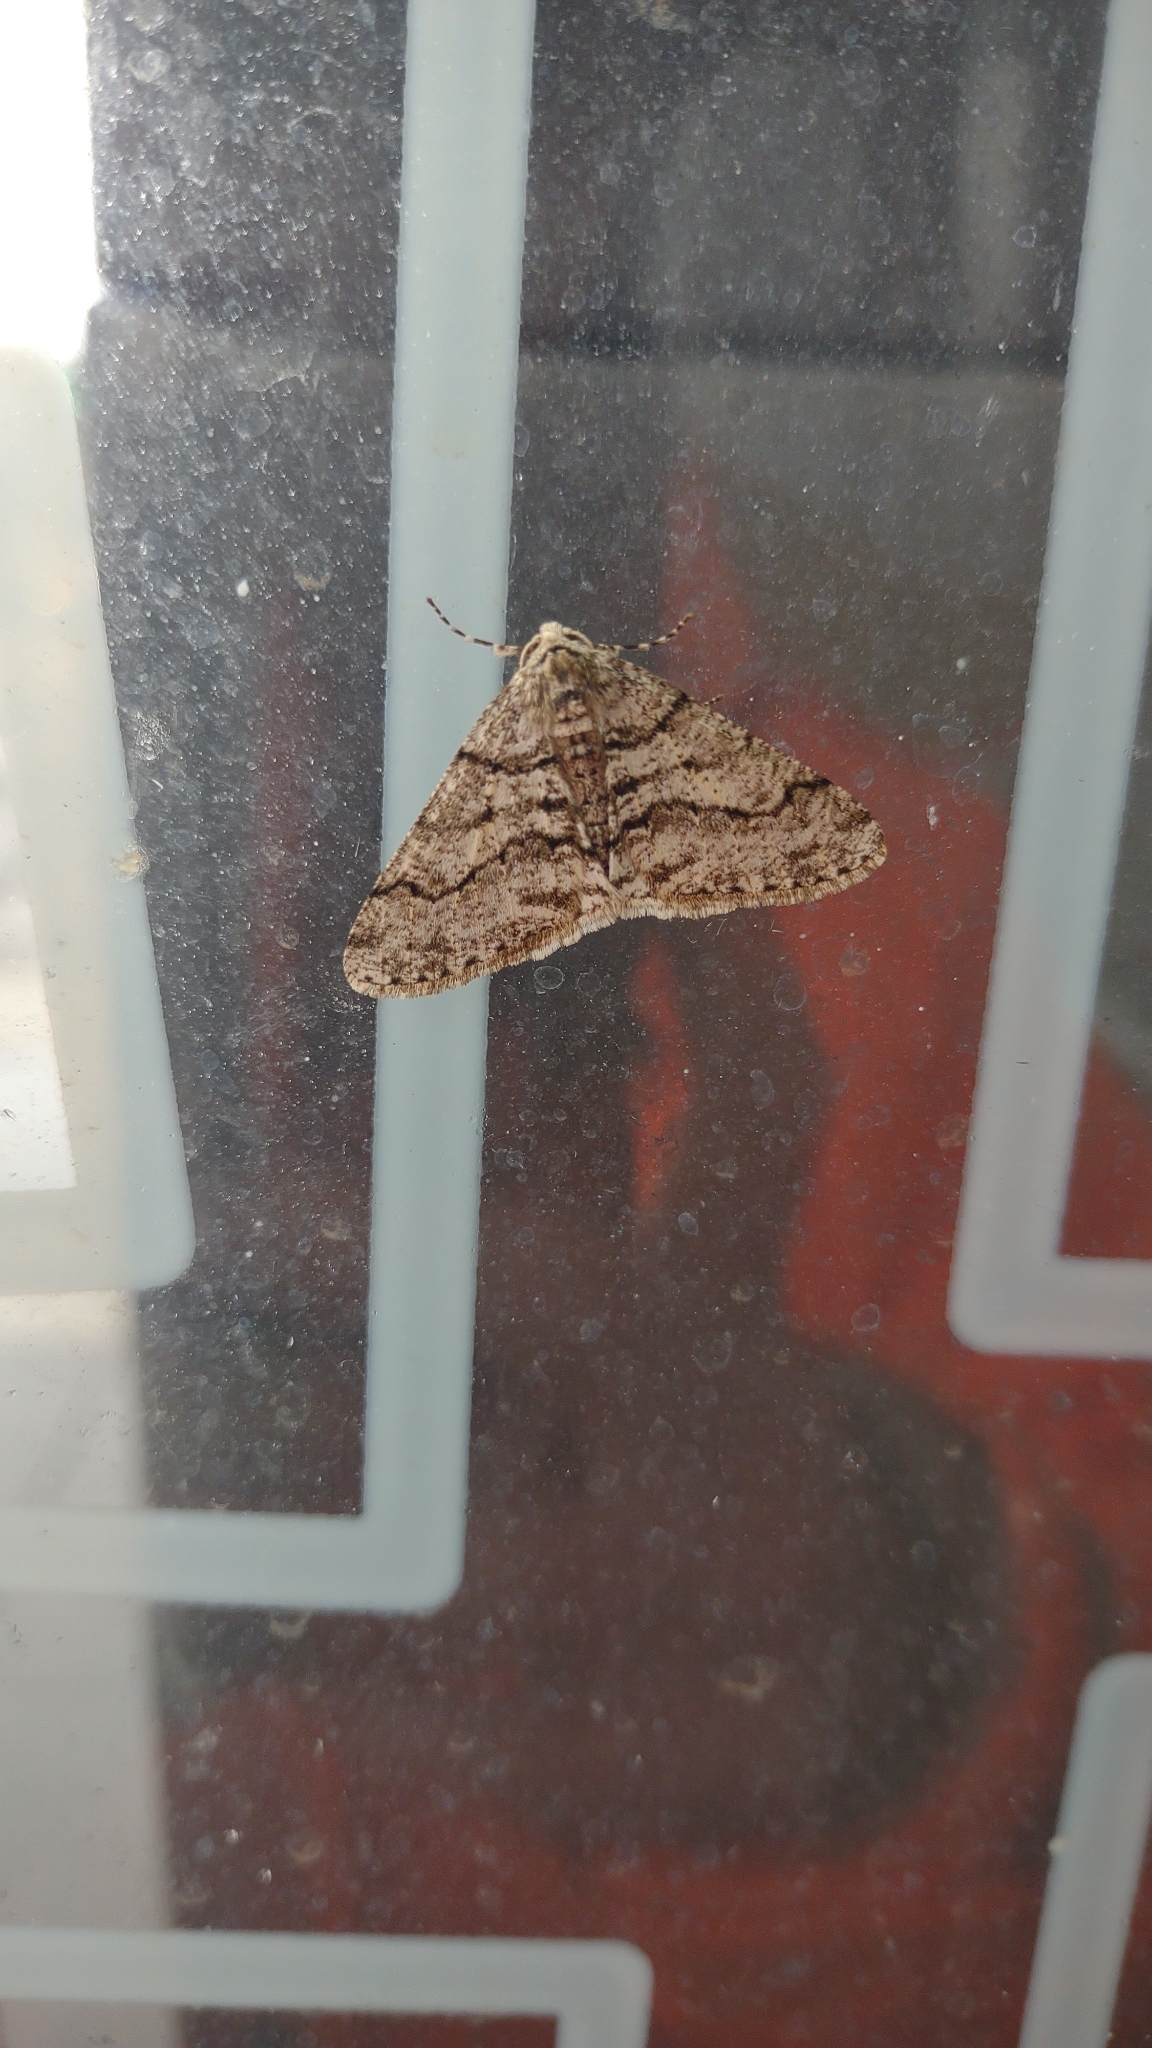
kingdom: Animalia
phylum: Arthropoda
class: Insecta
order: Lepidoptera
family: Geometridae
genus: Phigalia
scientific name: Phigalia titea
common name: Spiny looper
